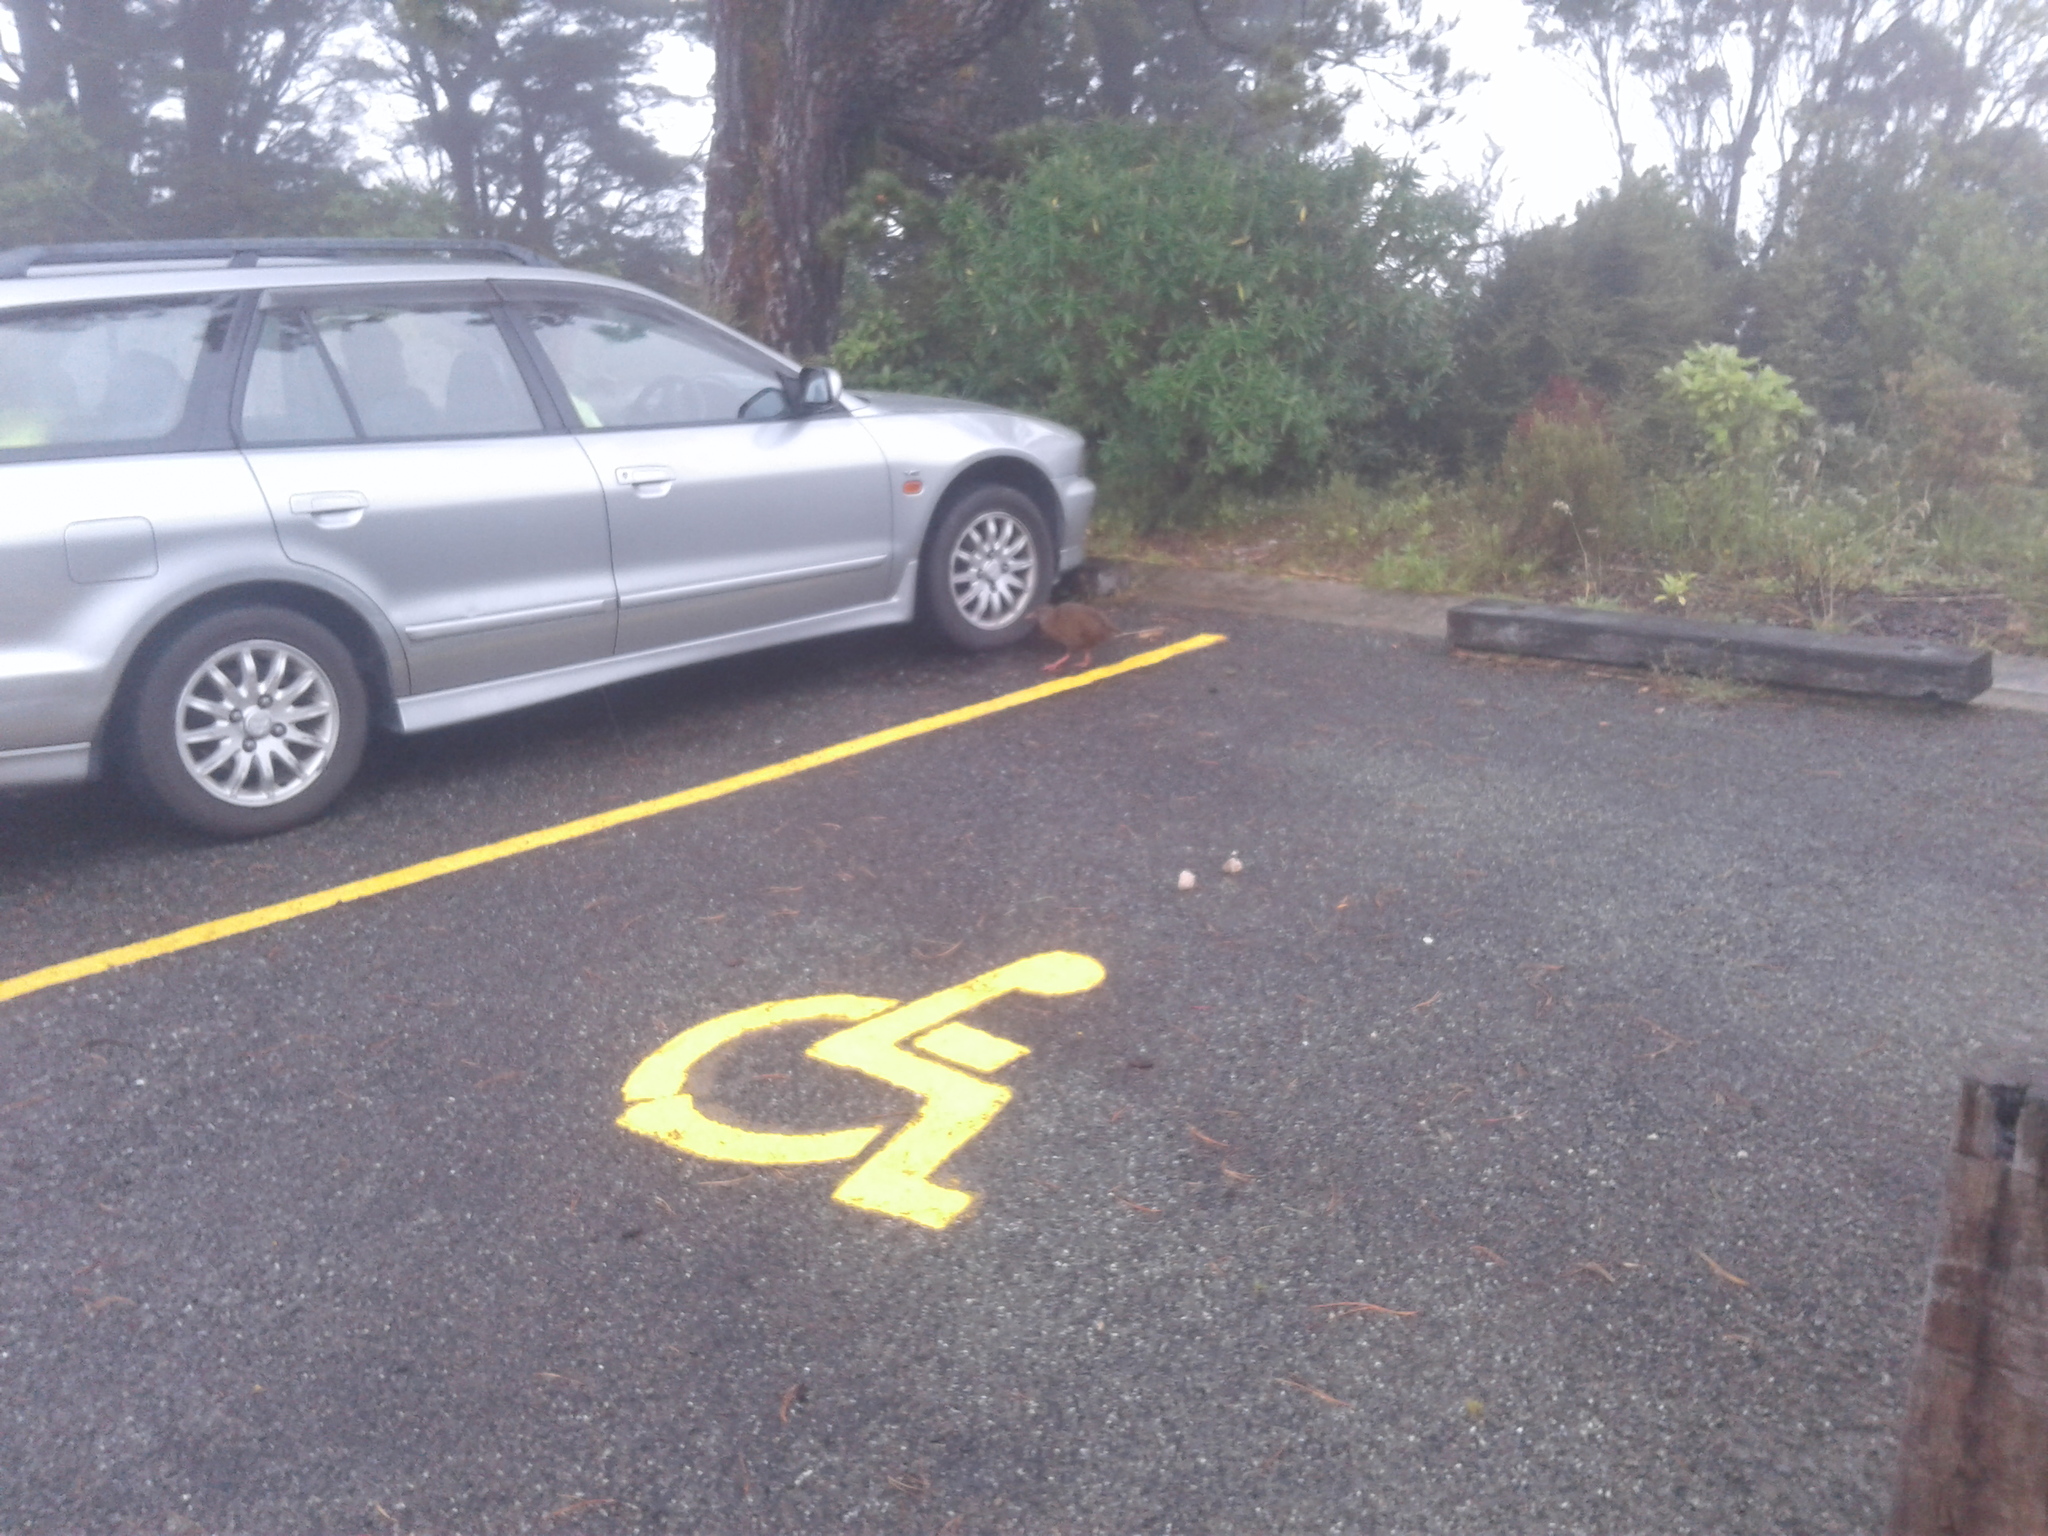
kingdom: Animalia
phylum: Chordata
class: Aves
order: Gruiformes
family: Rallidae
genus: Gallirallus
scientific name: Gallirallus australis
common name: Weka
